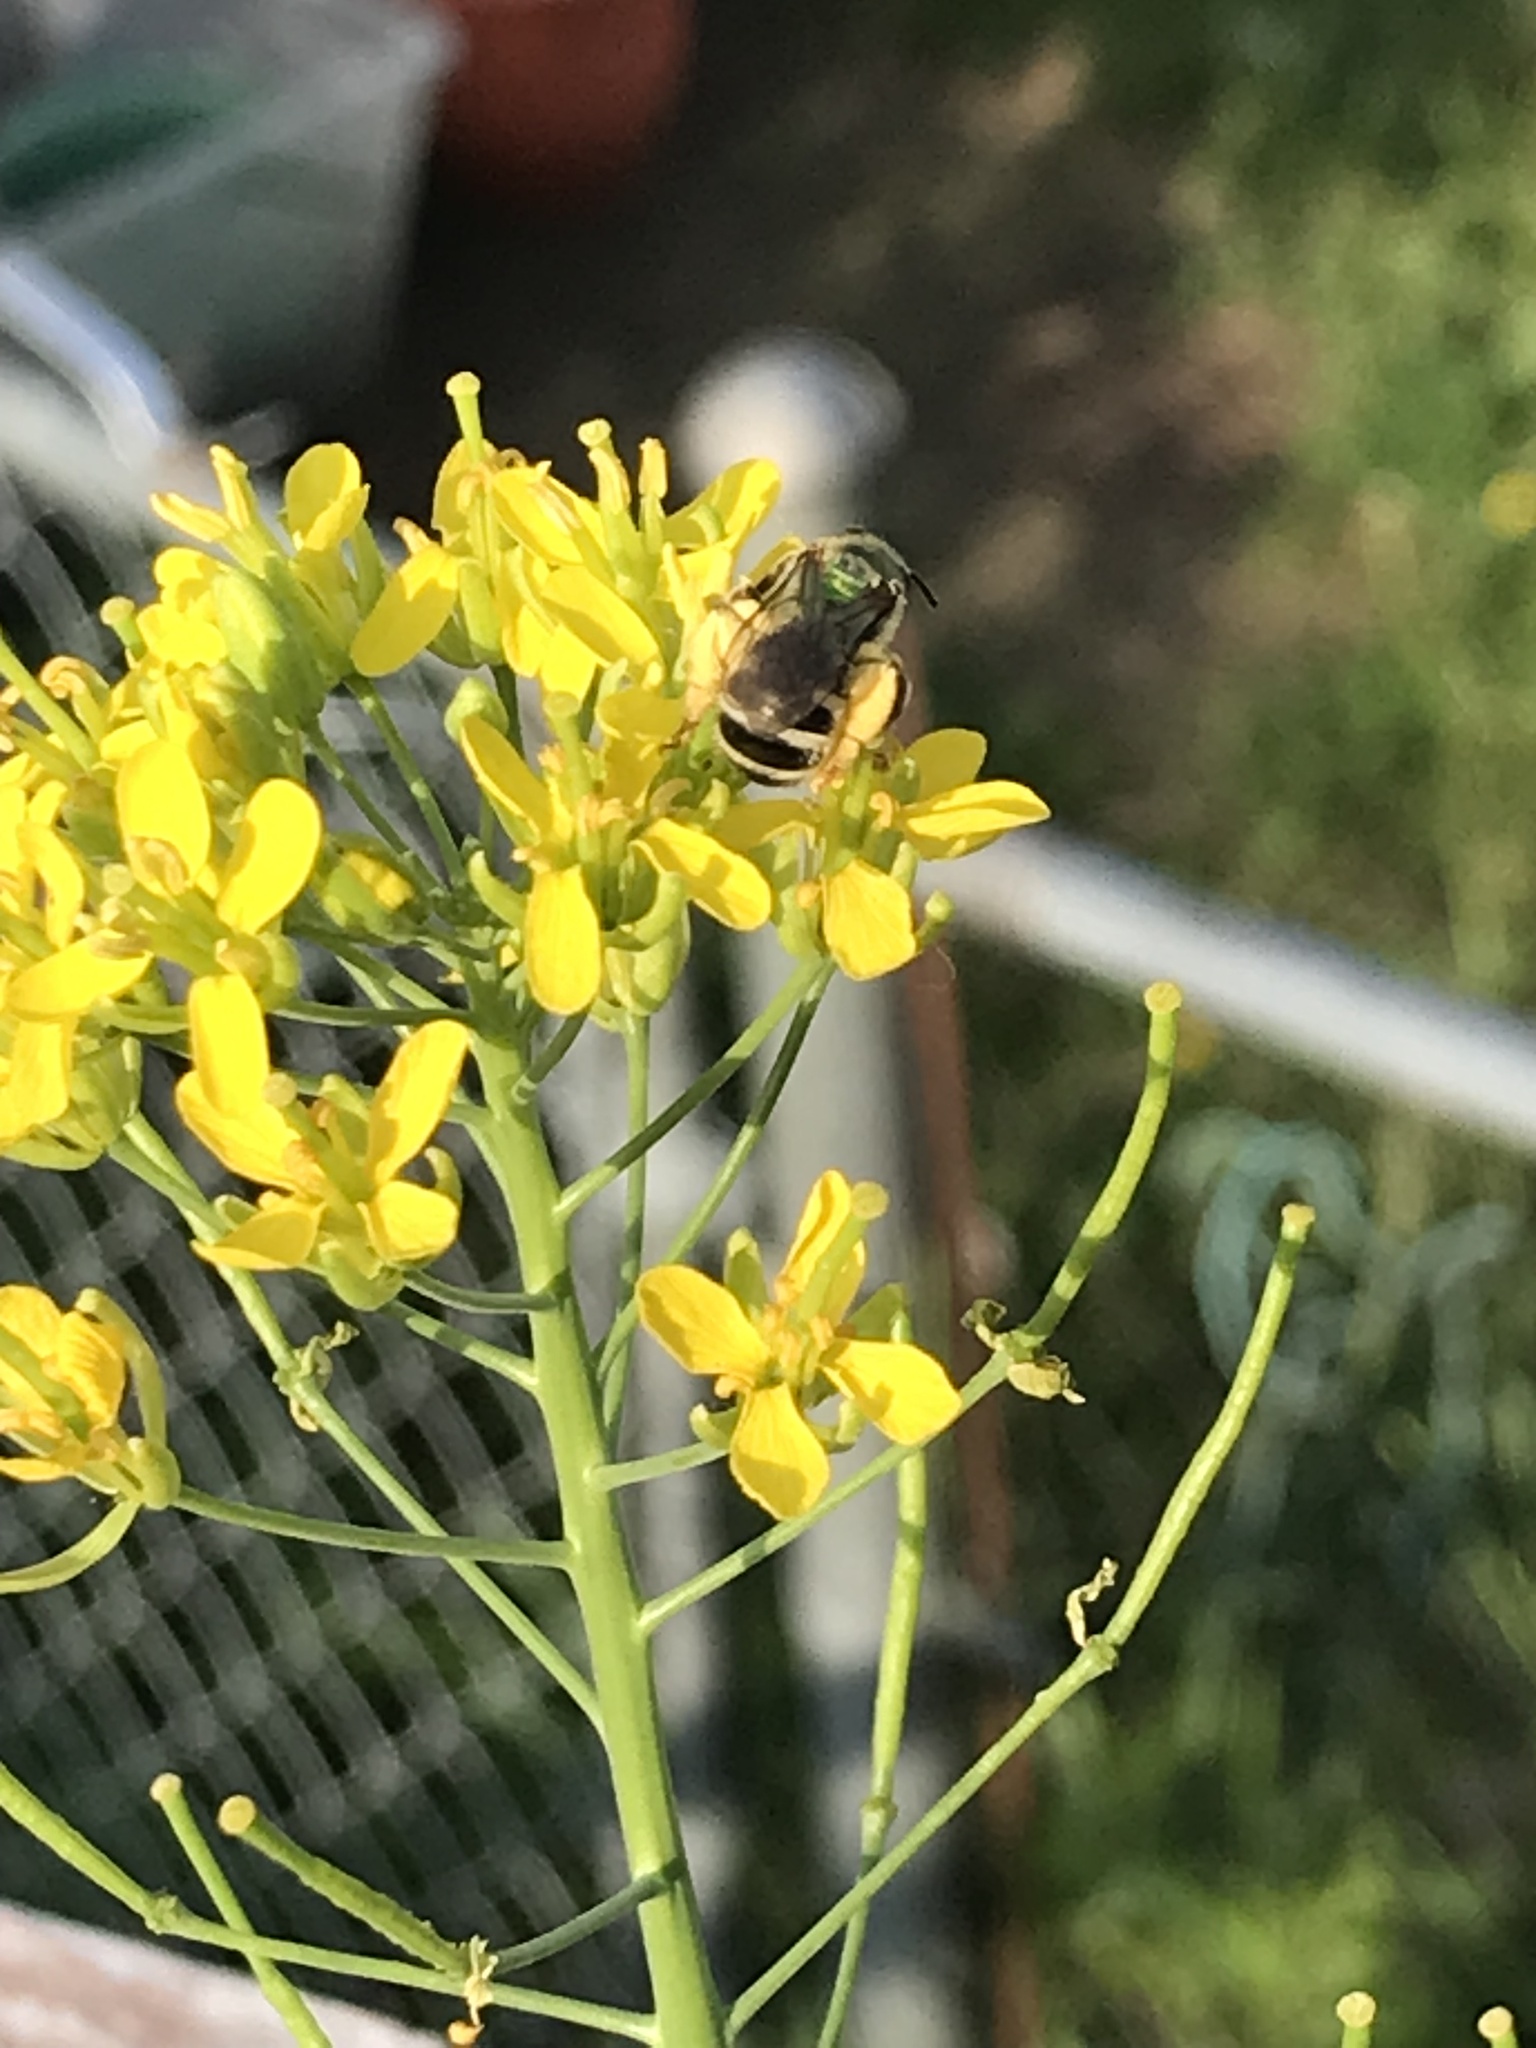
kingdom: Animalia
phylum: Arthropoda
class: Insecta
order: Hymenoptera
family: Halictidae
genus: Agapostemon
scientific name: Agapostemon virescens
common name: Bicolored striped sweat bee
